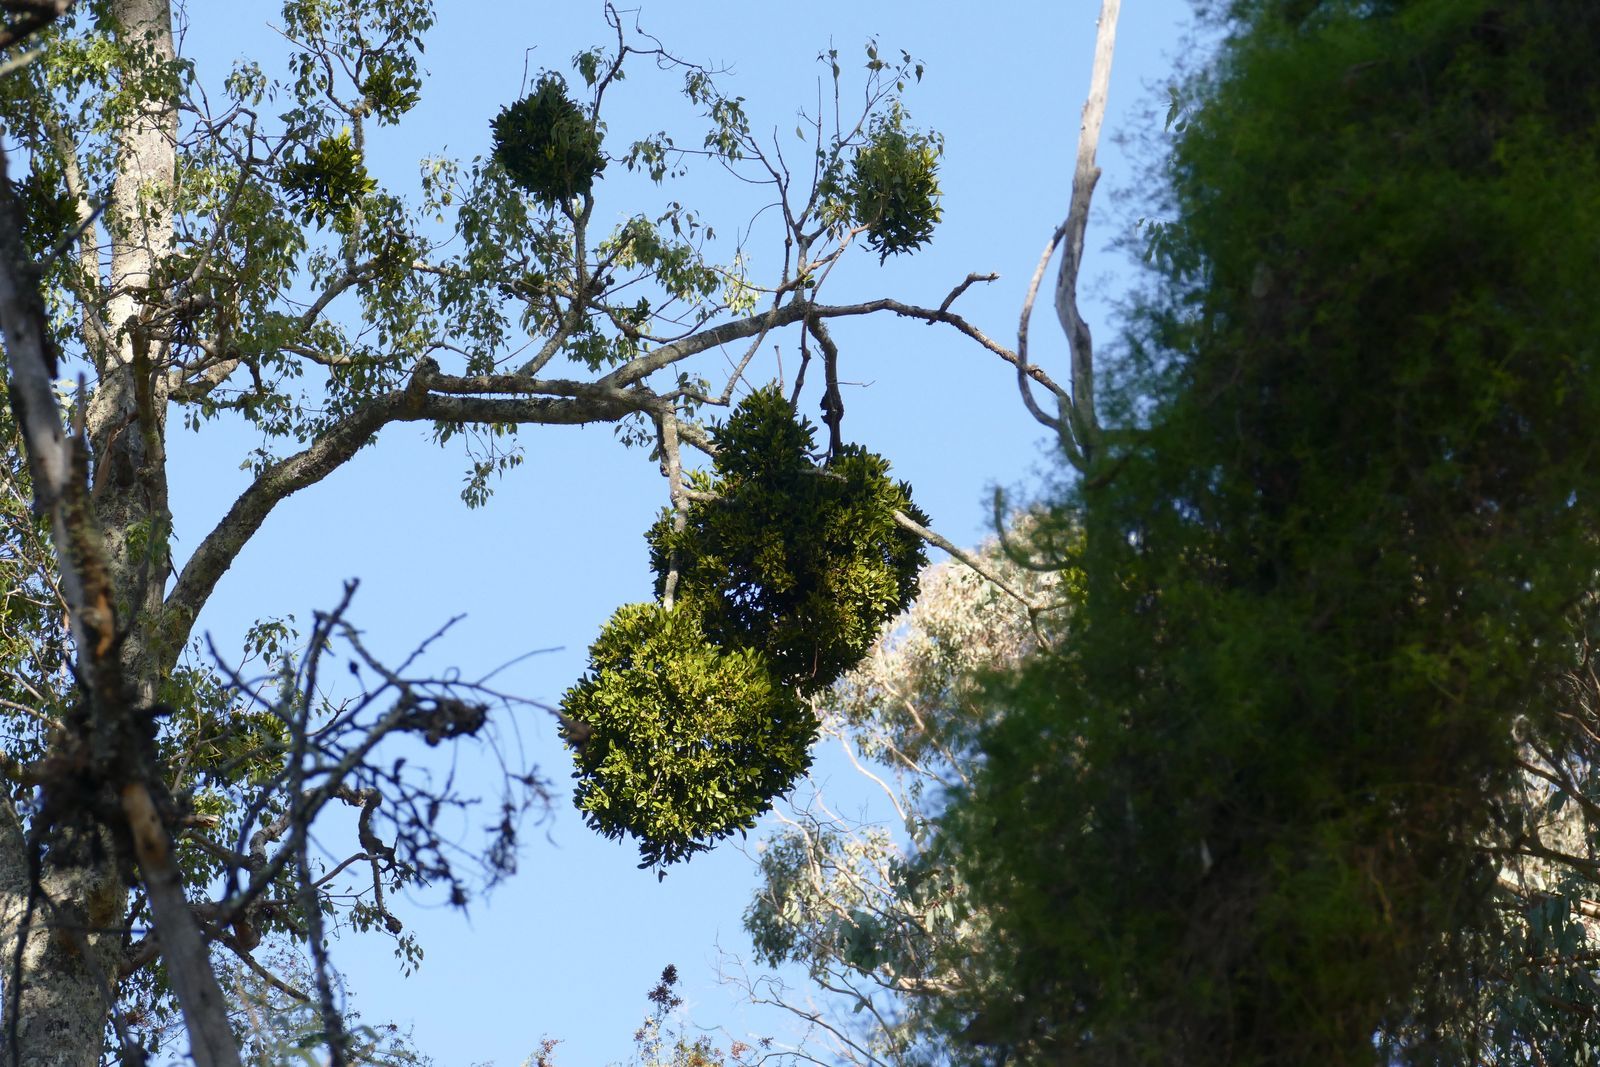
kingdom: Plantae
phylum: Tracheophyta
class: Magnoliopsida
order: Santalales
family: Viscaceae
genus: Notothixos
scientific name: Notothixos cornifolius
